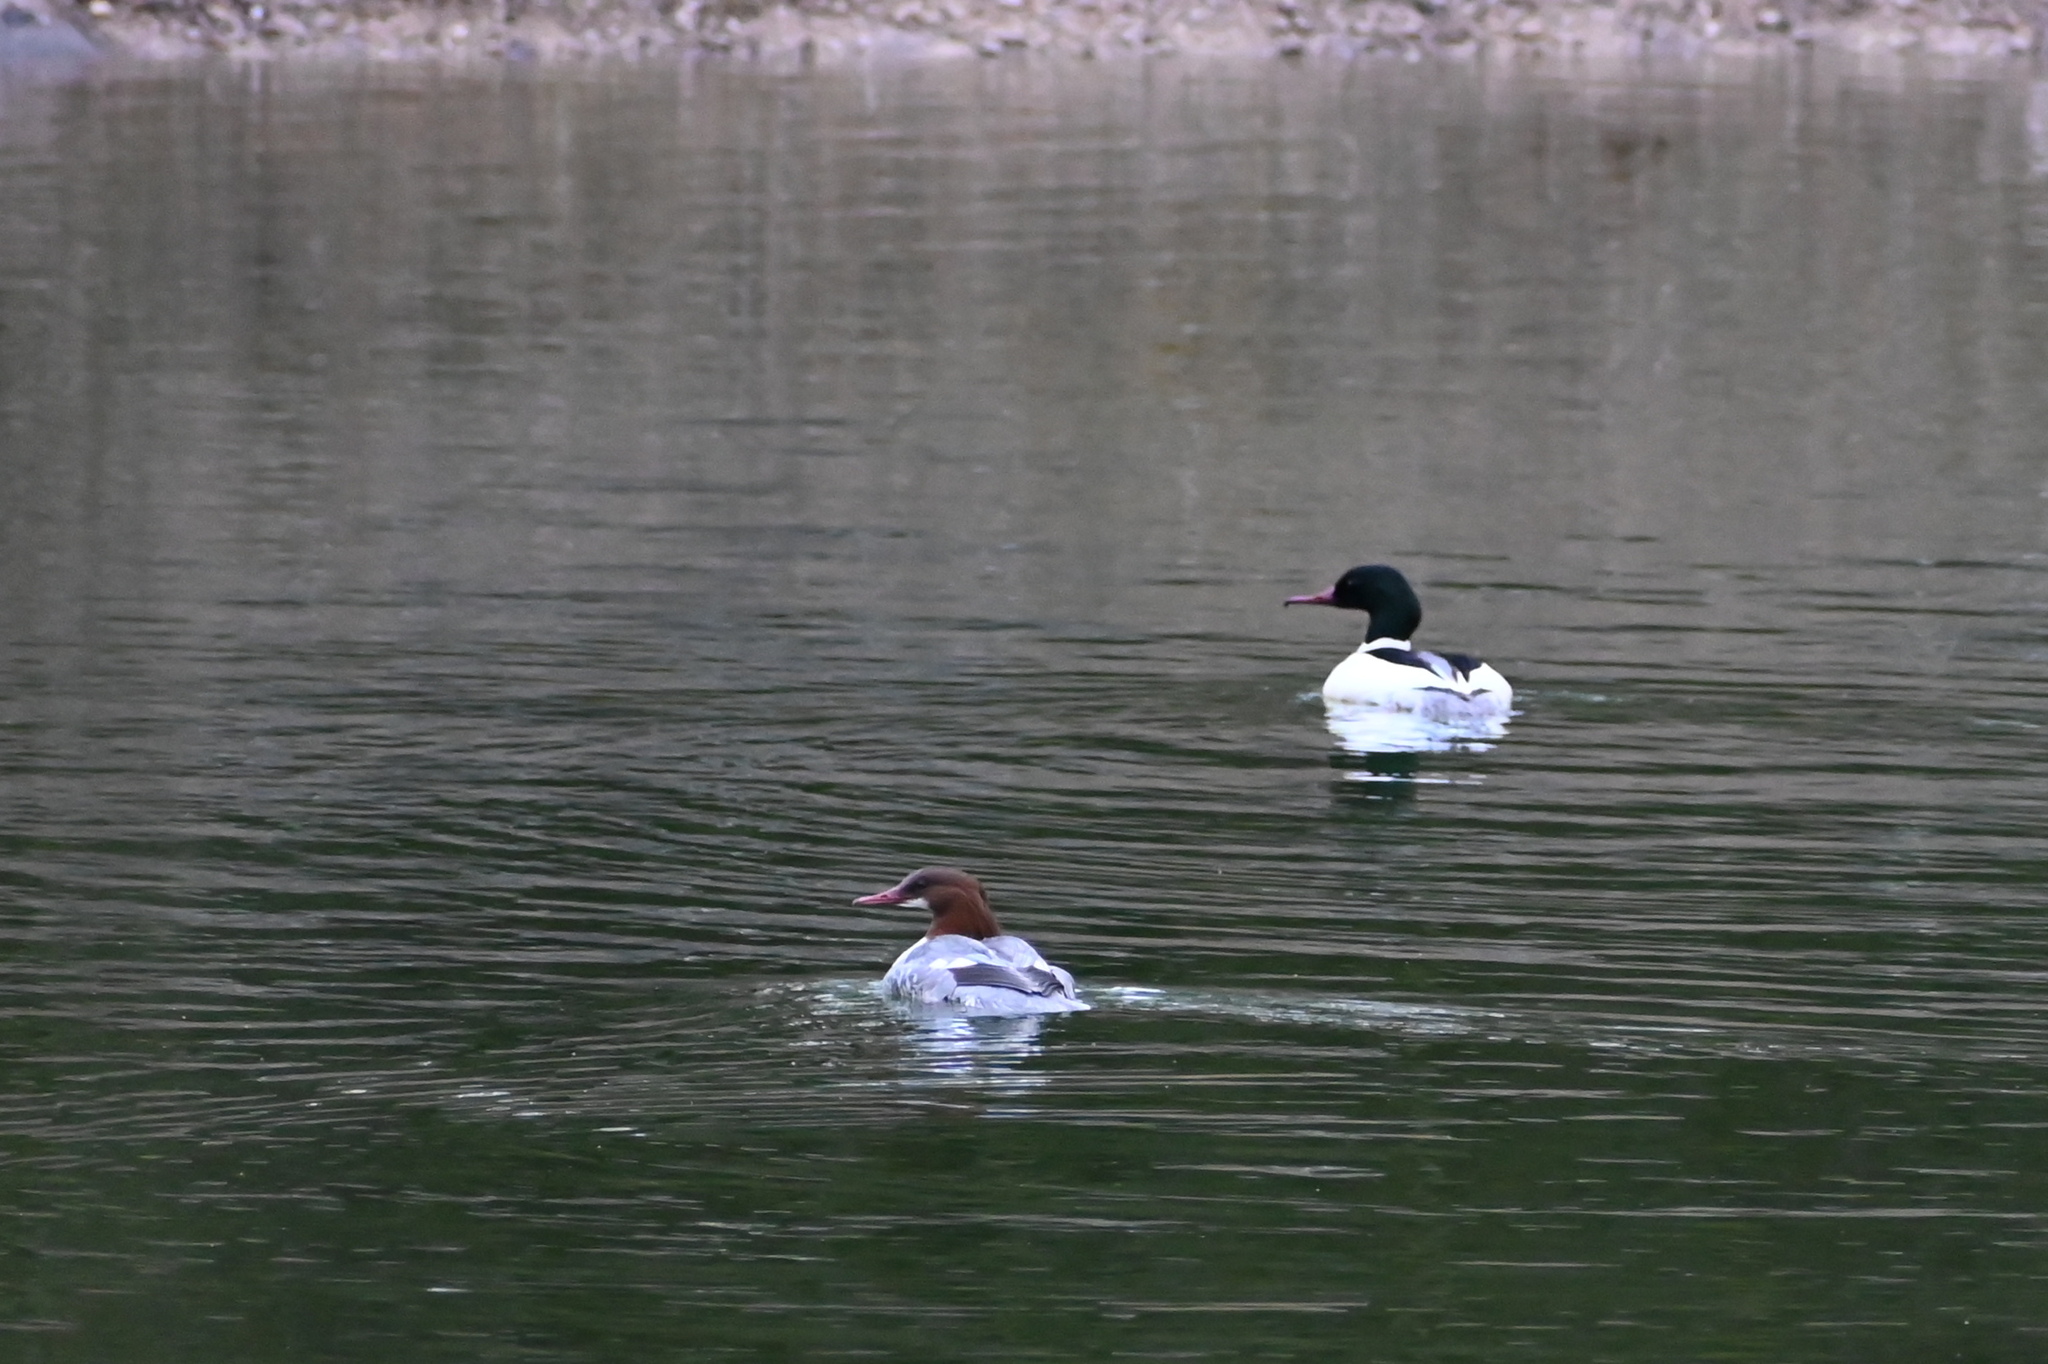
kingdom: Animalia
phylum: Chordata
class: Aves
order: Anseriformes
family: Anatidae
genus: Mergus
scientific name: Mergus merganser
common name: Common merganser
